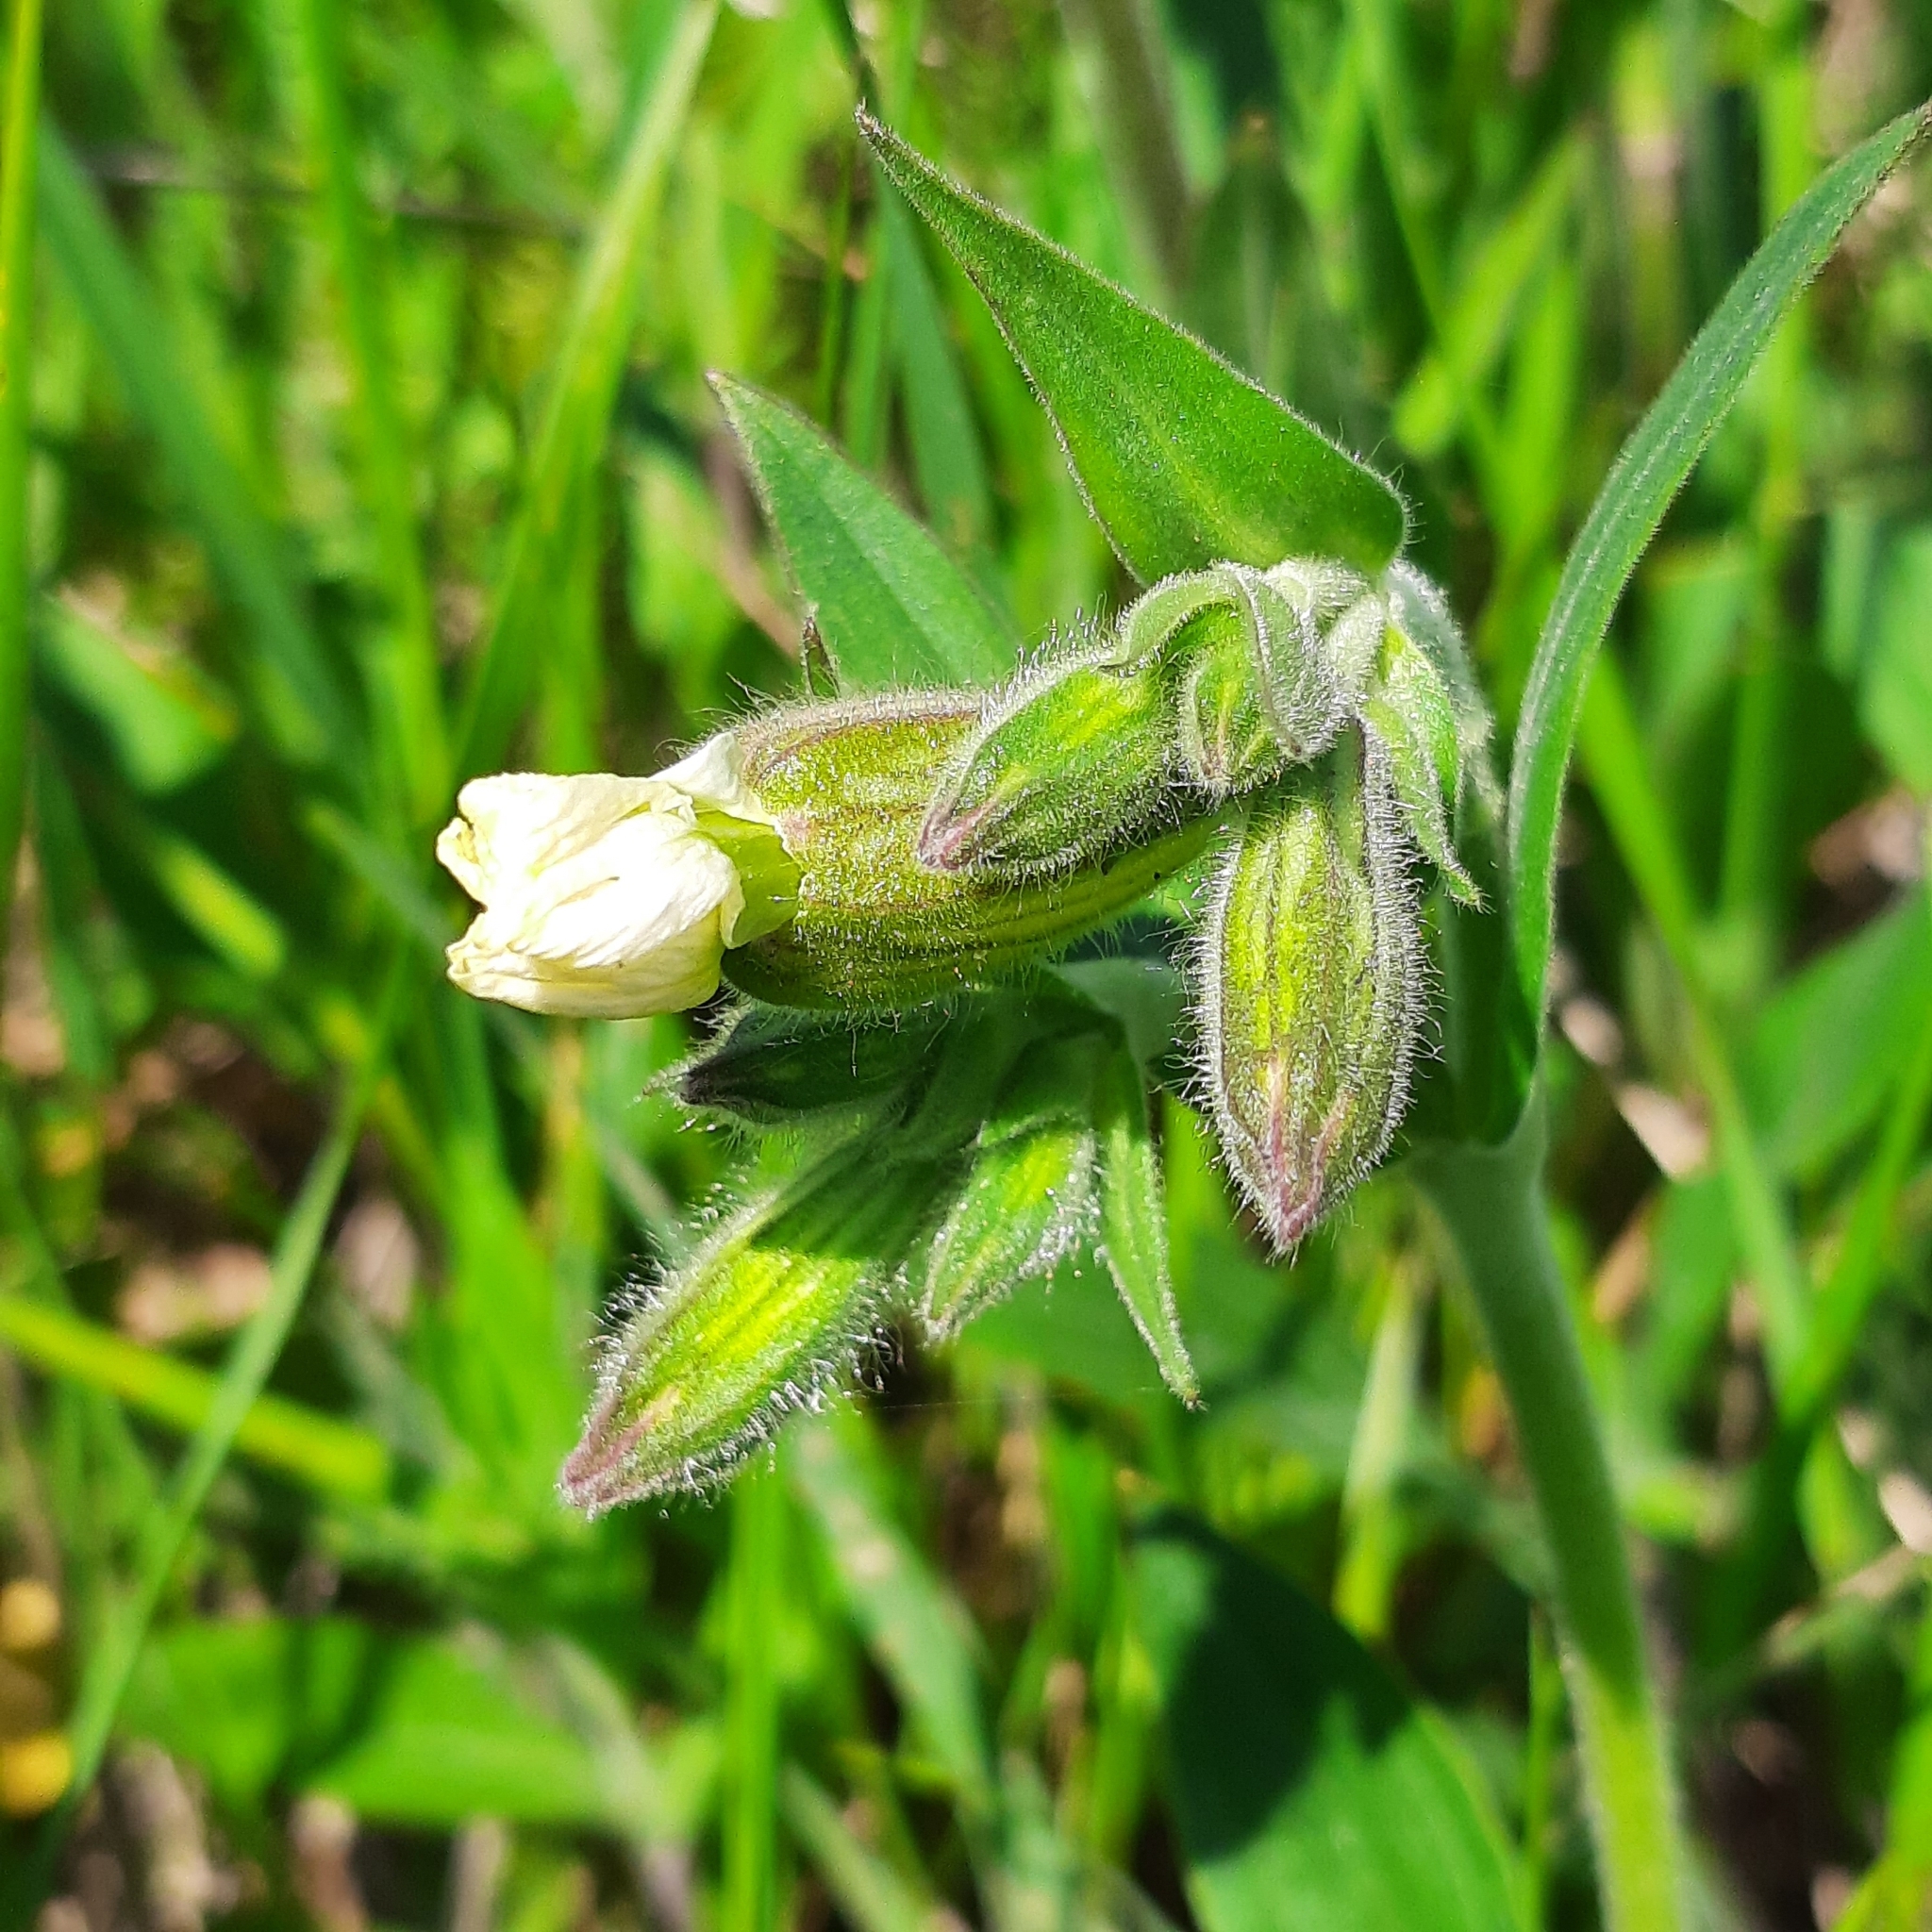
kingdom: Plantae
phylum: Tracheophyta
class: Magnoliopsida
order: Caryophyllales
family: Caryophyllaceae
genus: Silene
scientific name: Silene latifolia
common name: White campion
